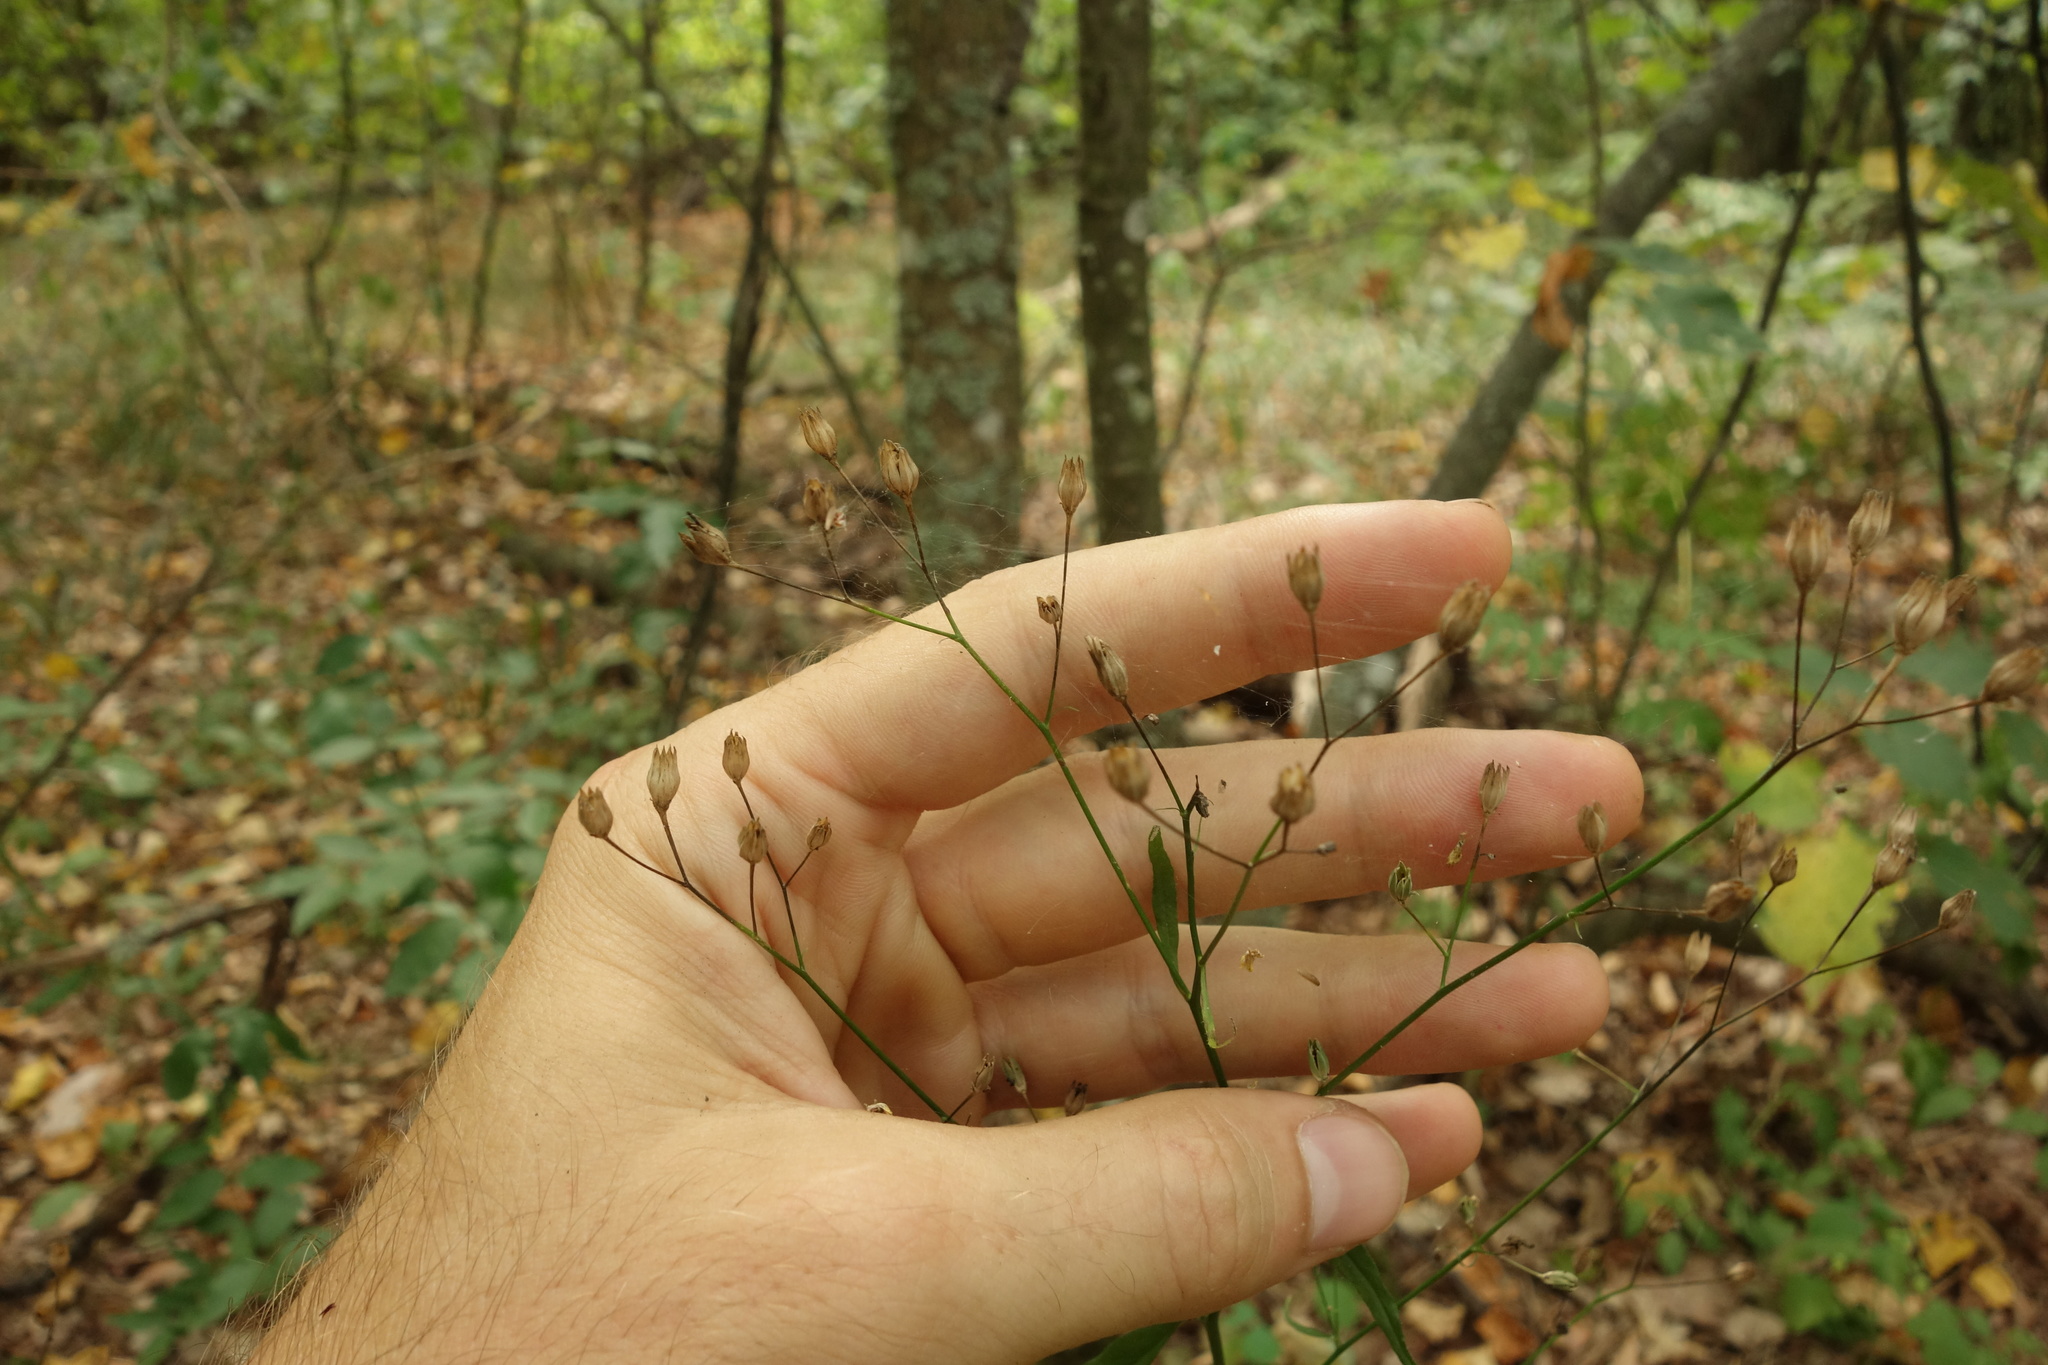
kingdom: Plantae
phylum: Tracheophyta
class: Magnoliopsida
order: Asterales
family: Asteraceae
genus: Lapsana
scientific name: Lapsana communis
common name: Nipplewort
